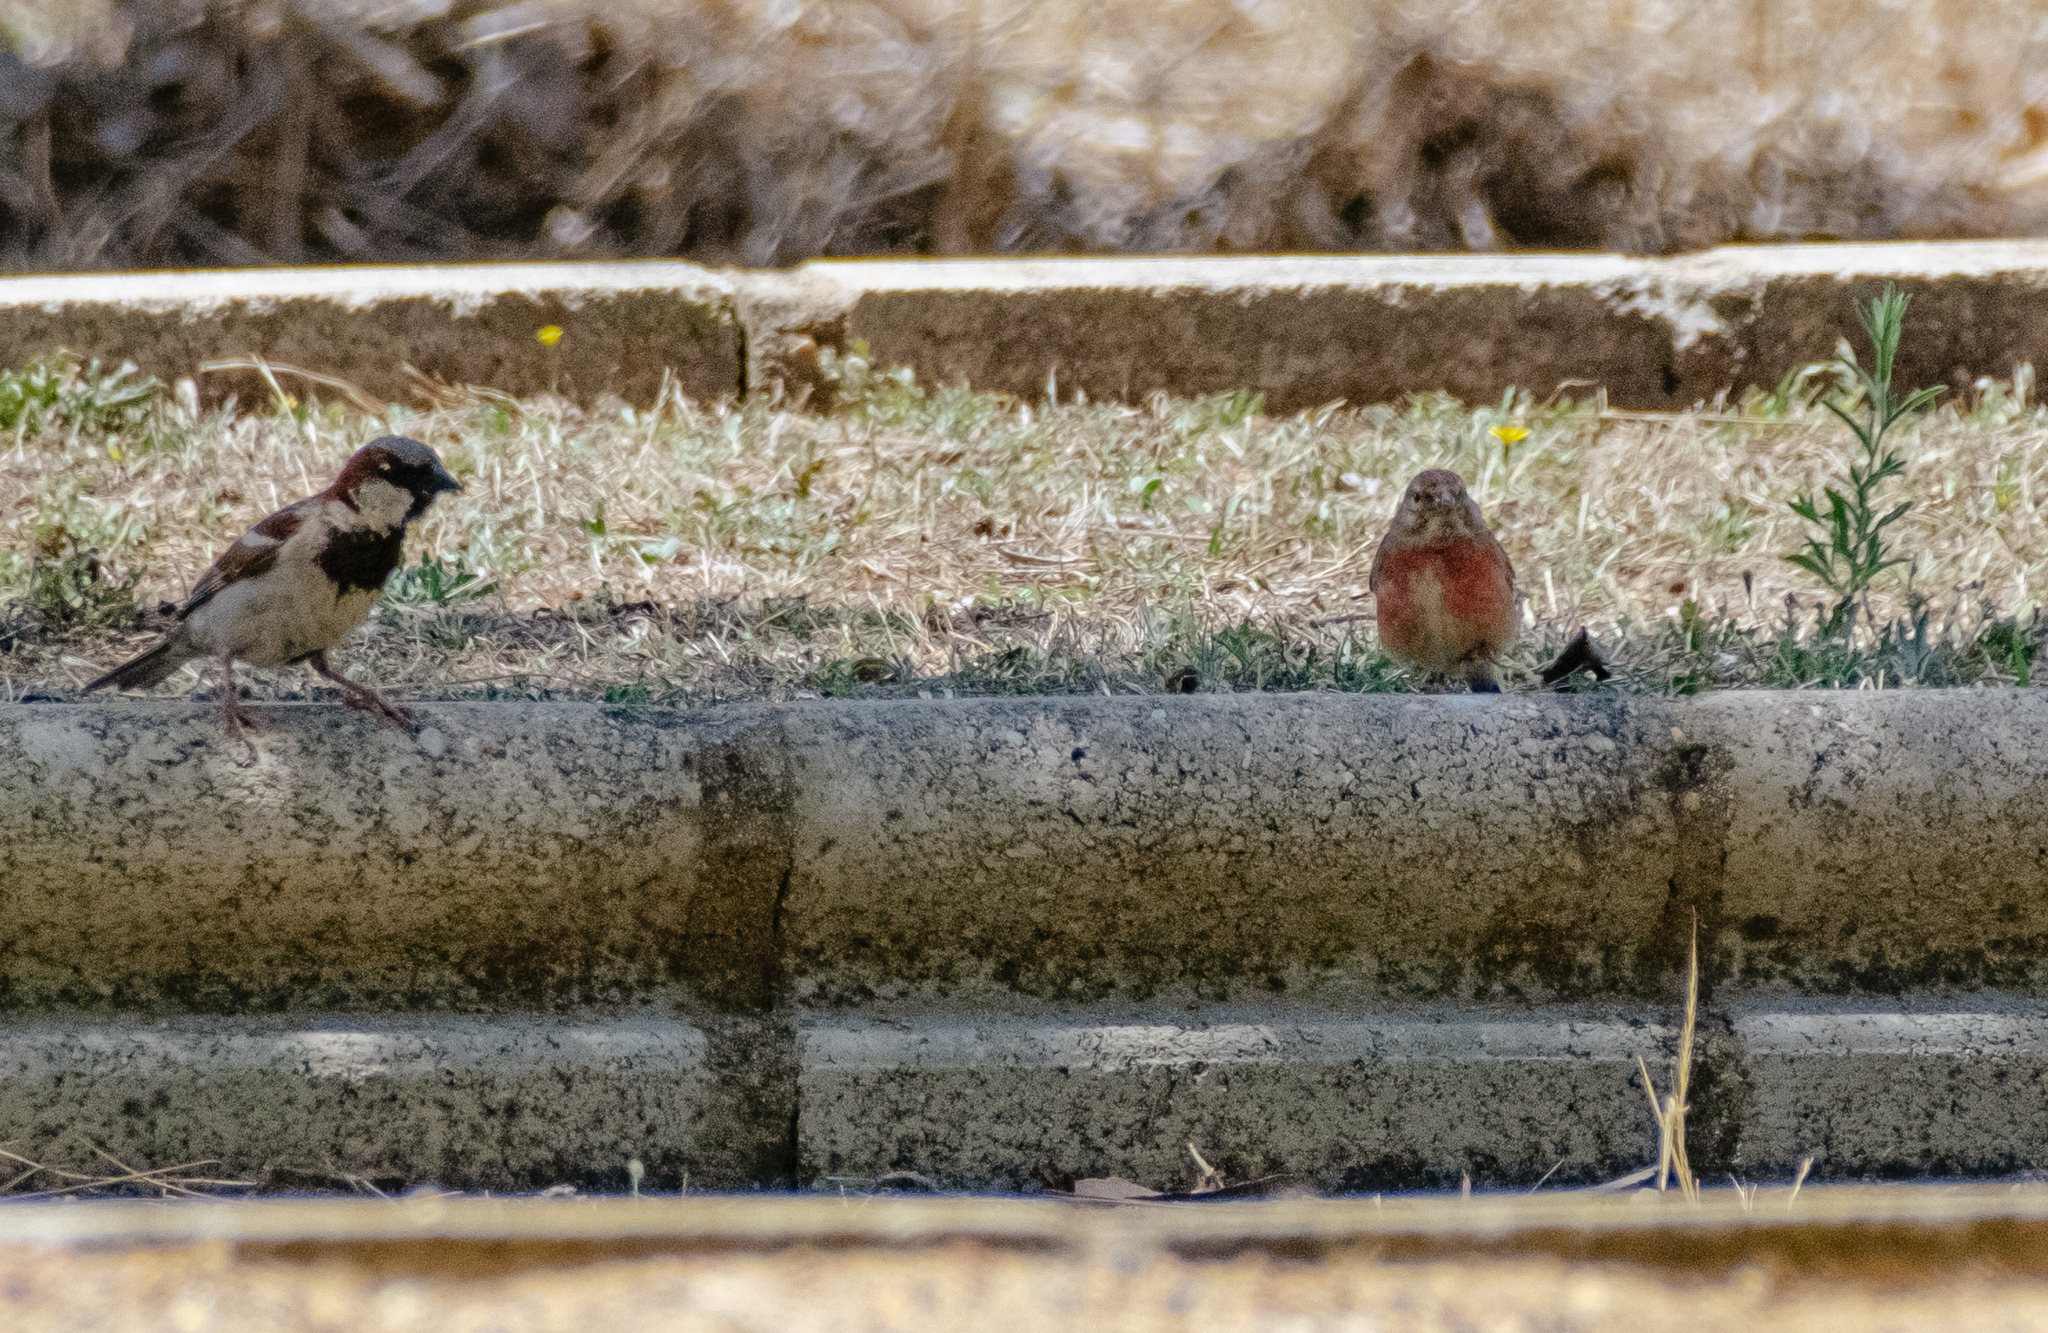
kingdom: Animalia
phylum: Chordata
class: Aves
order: Passeriformes
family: Fringillidae
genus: Linaria
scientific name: Linaria cannabina
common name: Common linnet
